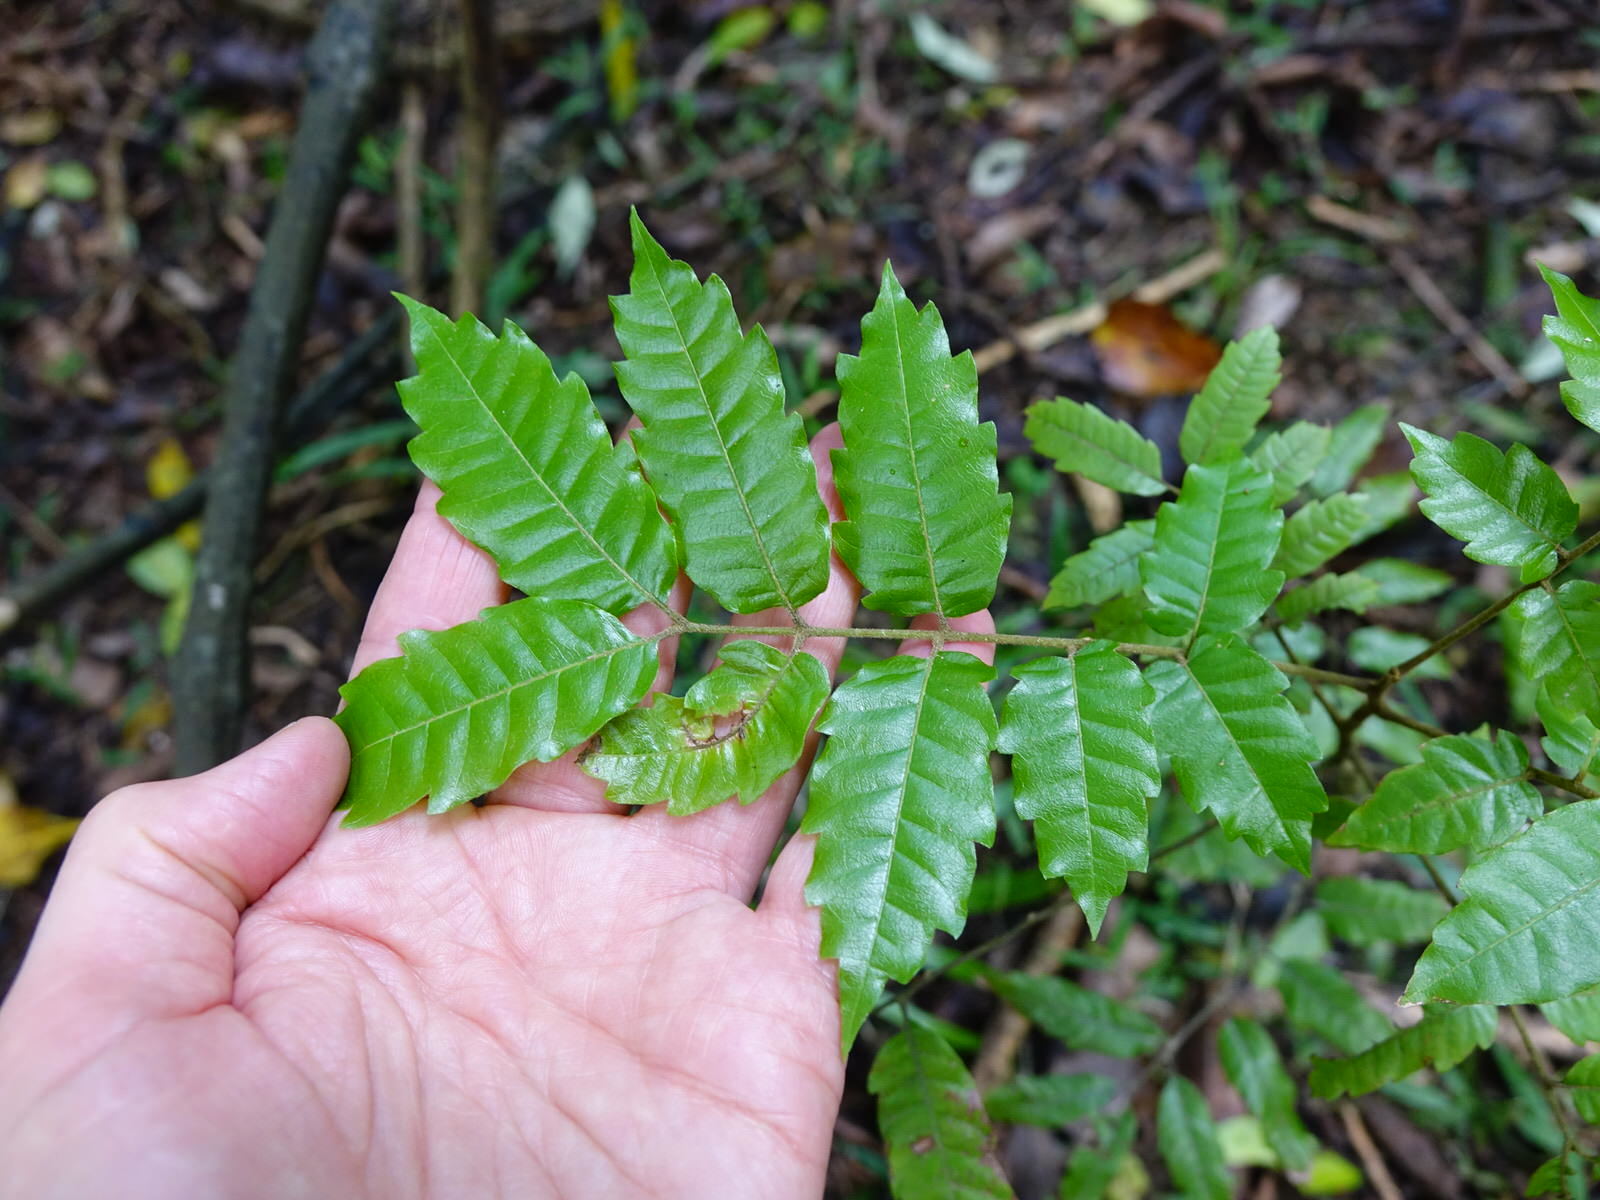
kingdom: Plantae
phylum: Tracheophyta
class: Magnoliopsida
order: Sapindales
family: Sapindaceae
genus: Alectryon
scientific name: Alectryon excelsus
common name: Three kings titoki
